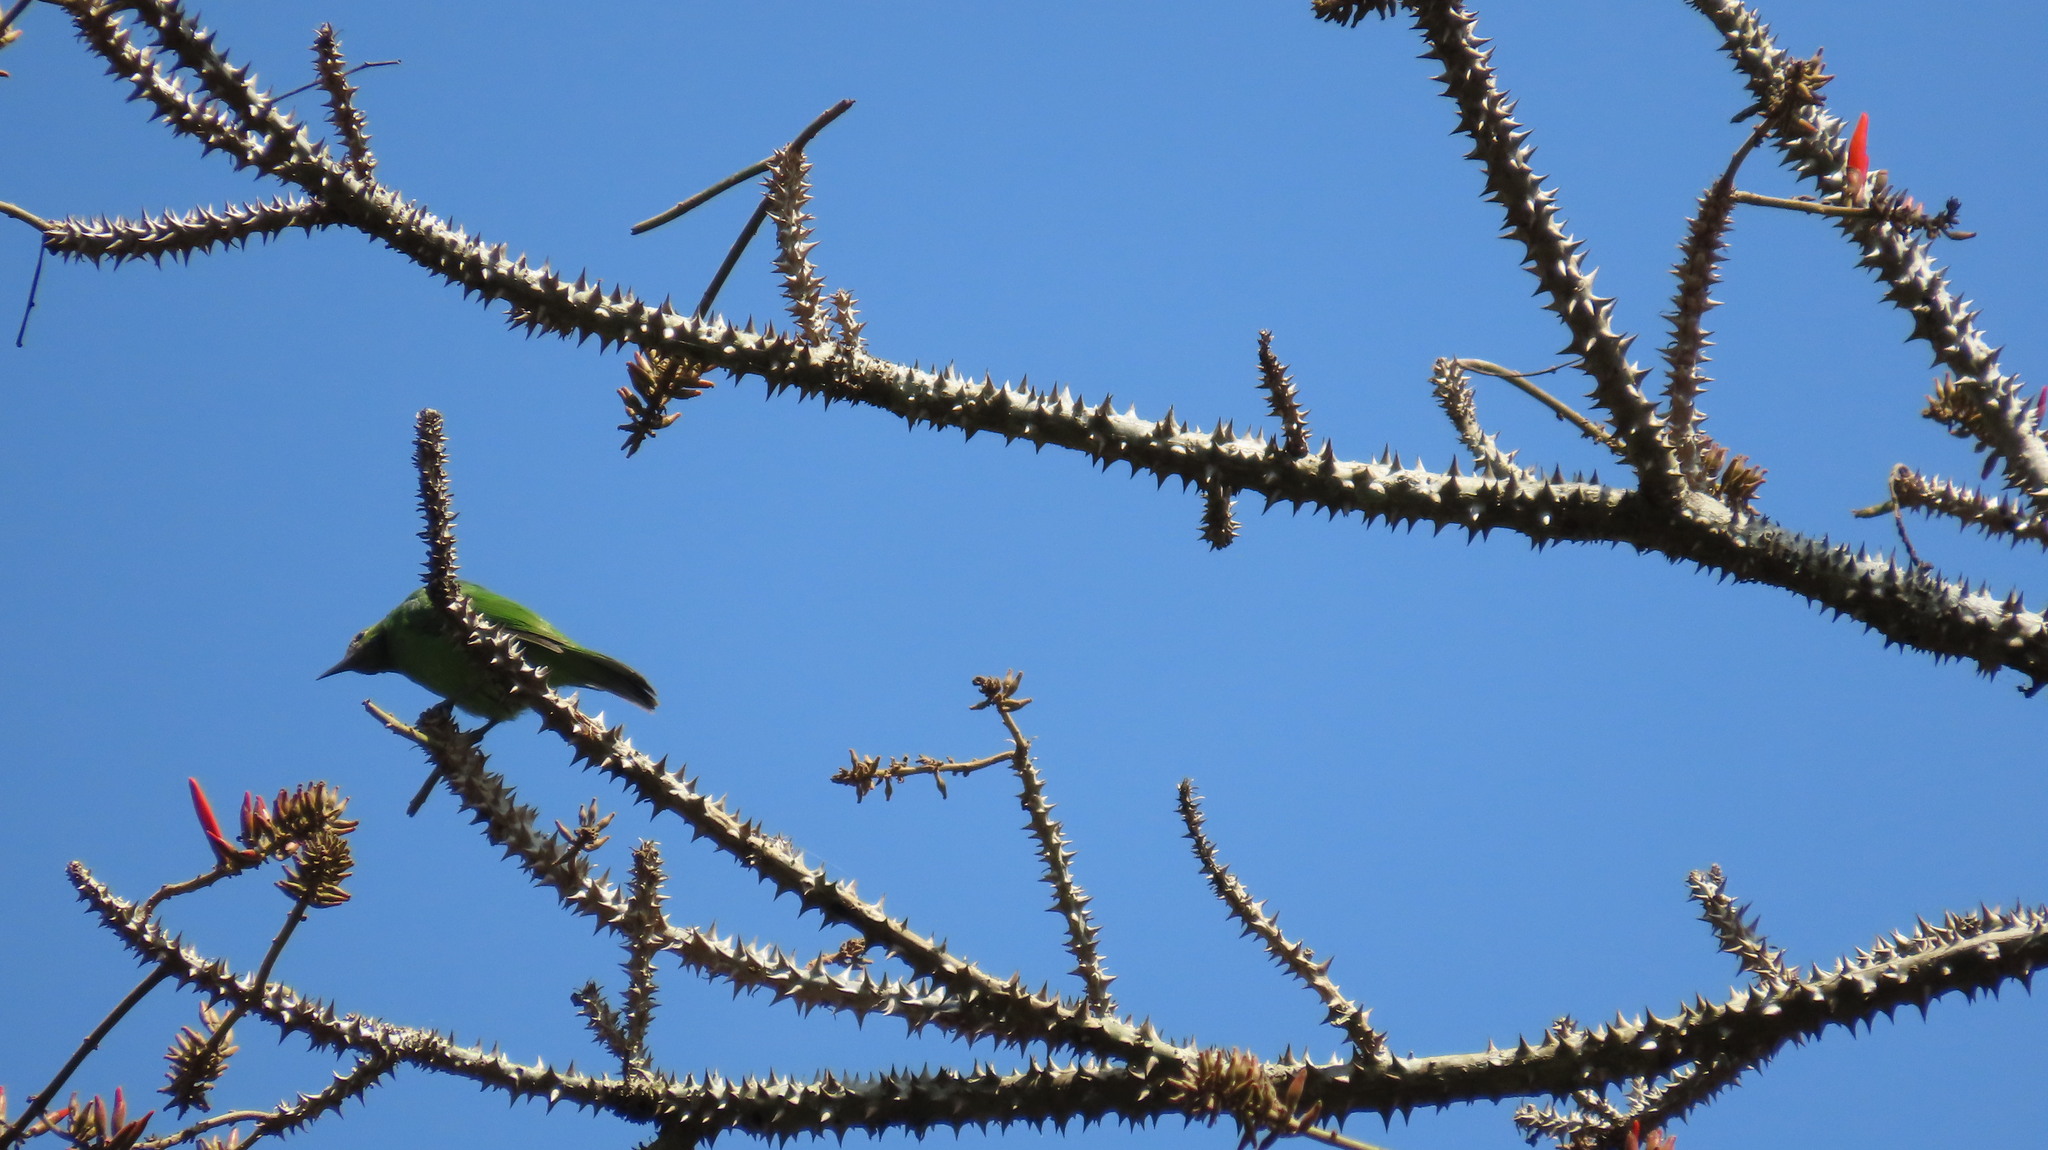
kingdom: Animalia
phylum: Chordata
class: Aves
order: Passeriformes
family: Chloropseidae
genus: Chloropsis
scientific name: Chloropsis aurifrons
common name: Golden-fronted leafbird
